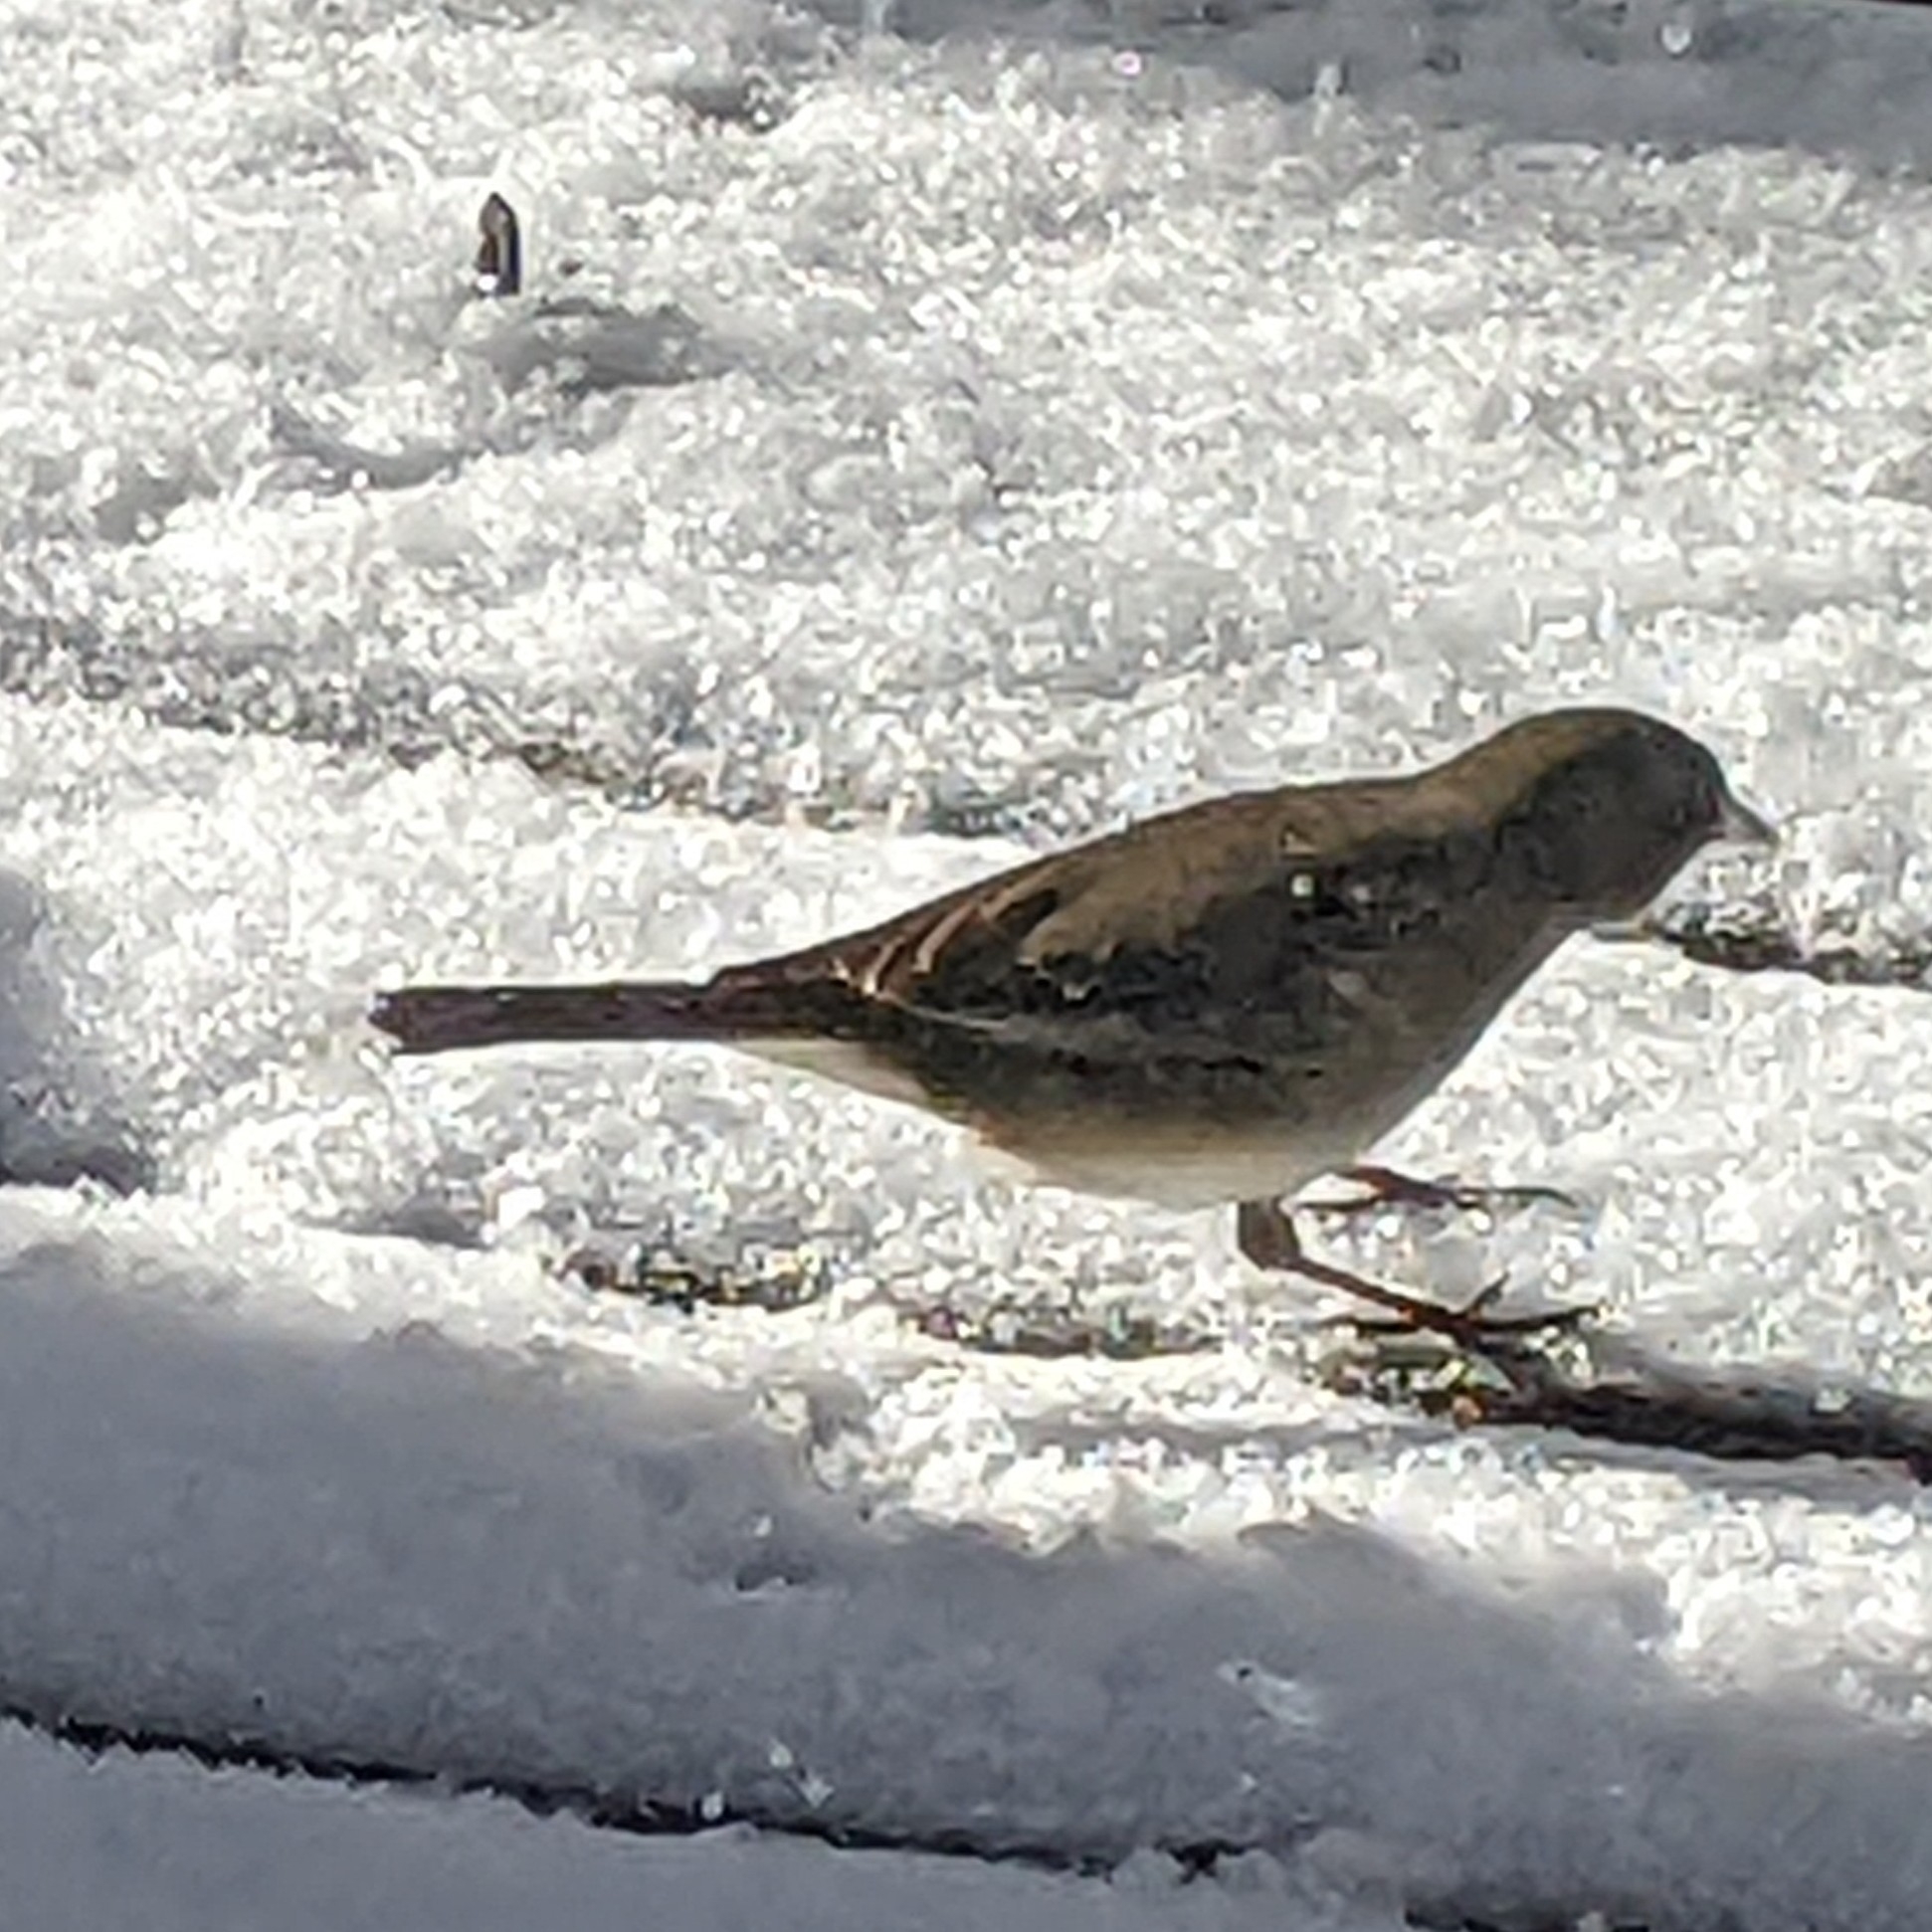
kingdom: Animalia
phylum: Chordata
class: Aves
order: Passeriformes
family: Passerellidae
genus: Junco
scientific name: Junco hyemalis
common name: Dark-eyed junco
